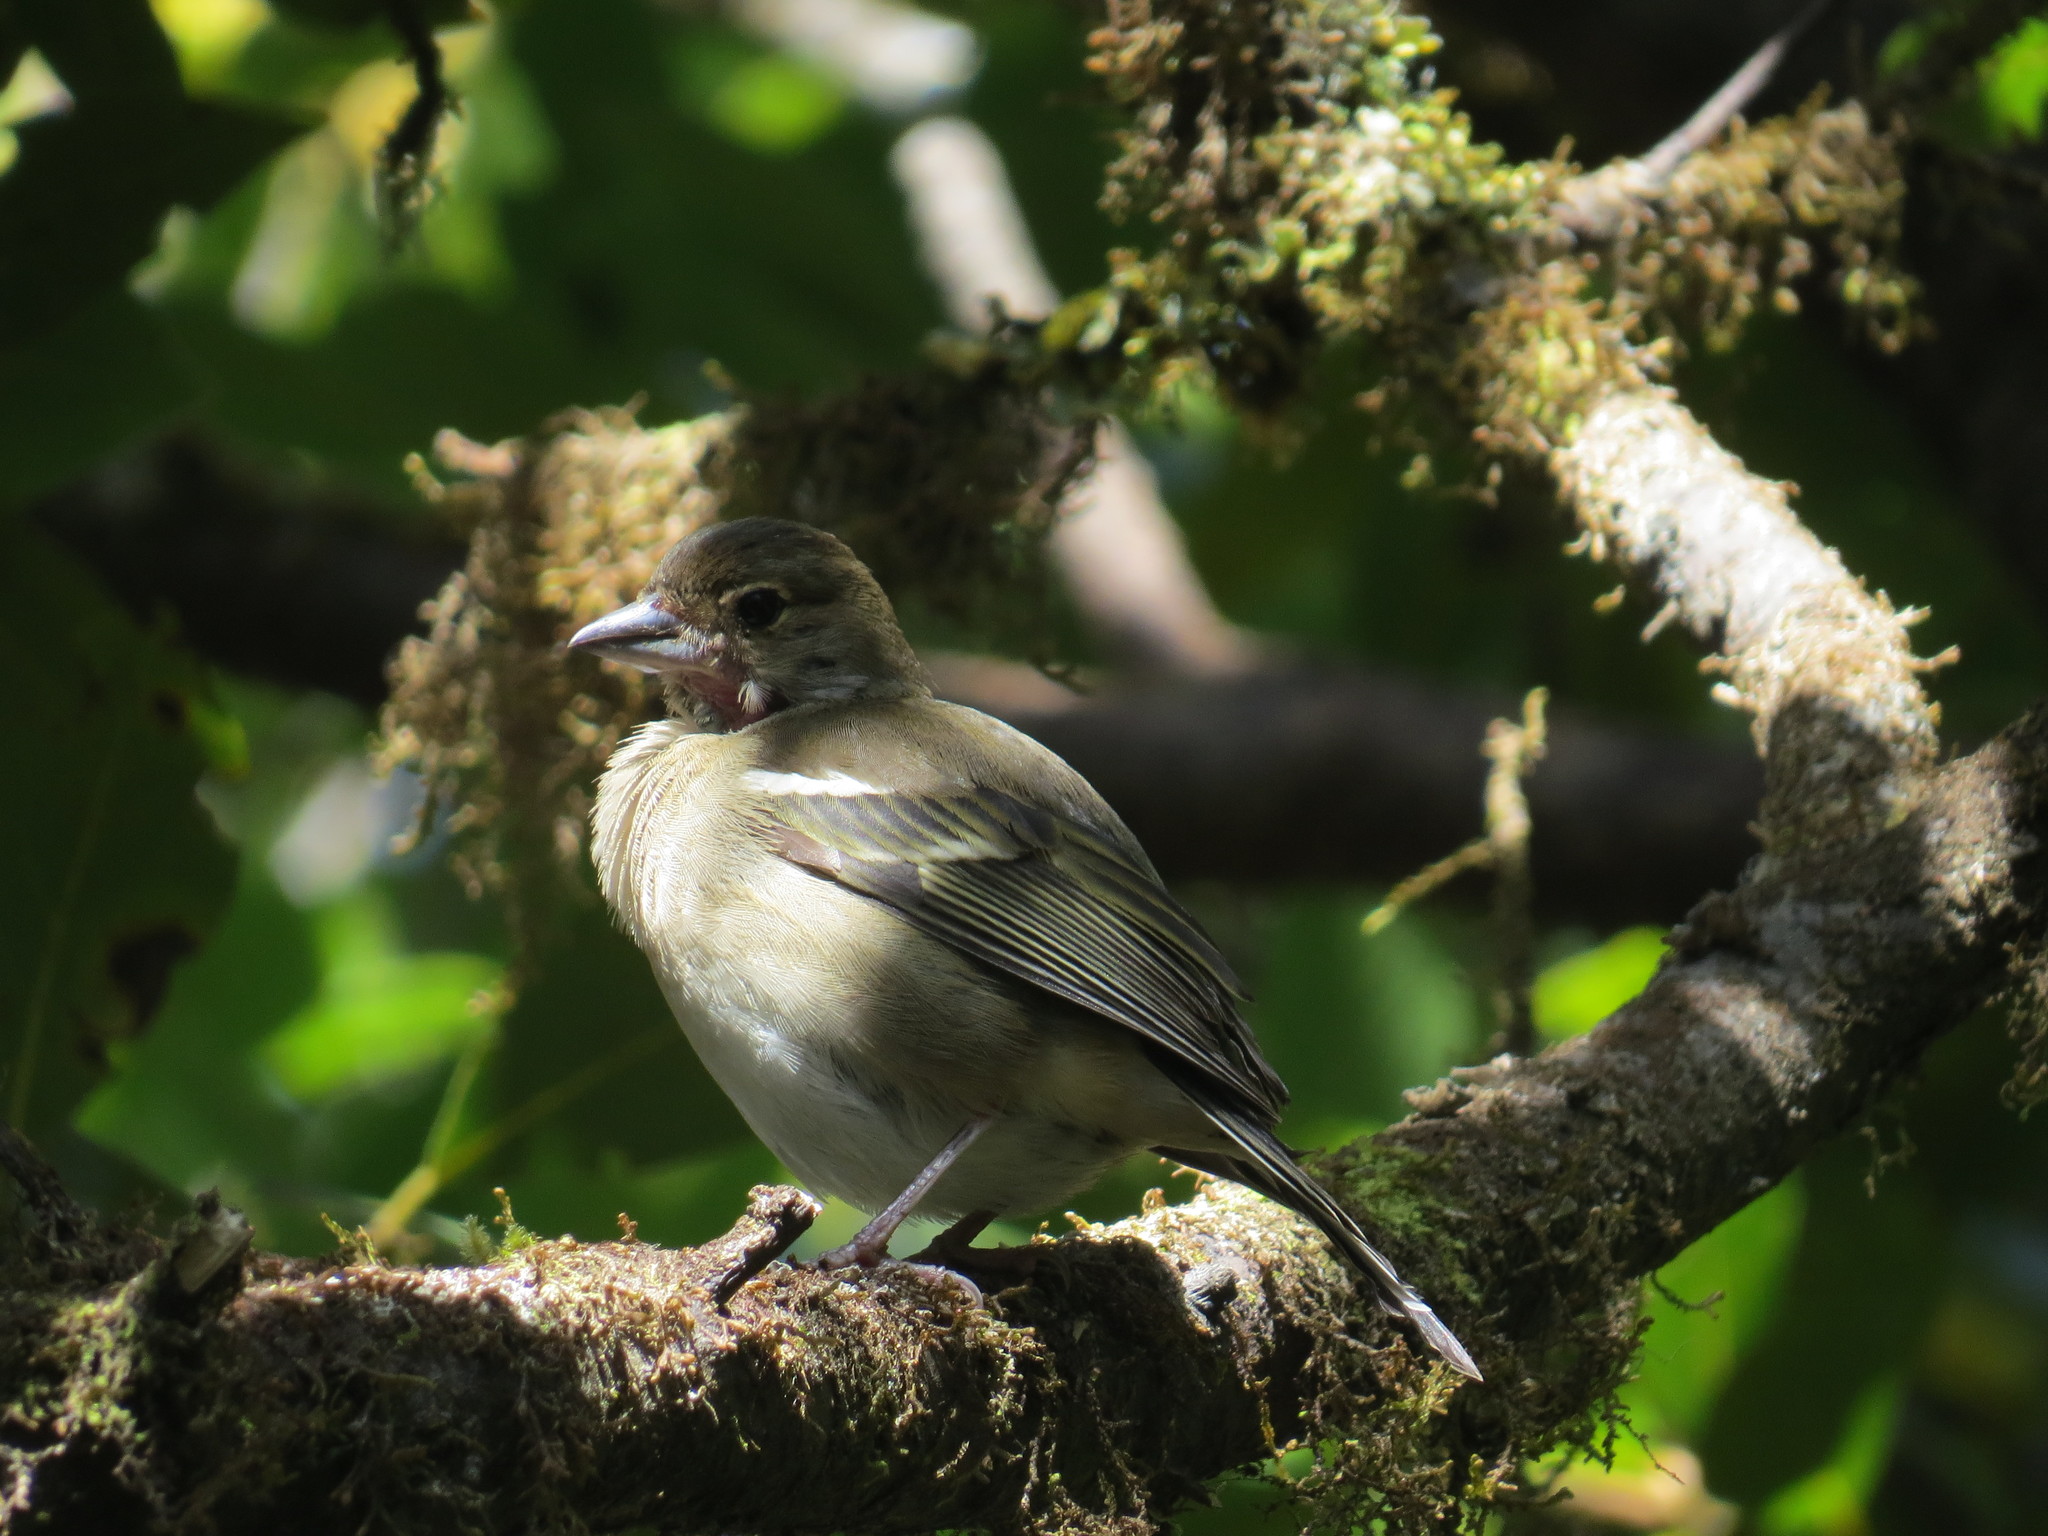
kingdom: Animalia
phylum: Chordata
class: Aves
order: Passeriformes
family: Fringillidae
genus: Fringilla
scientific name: Fringilla canariensis
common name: Canary islands chaffinch
